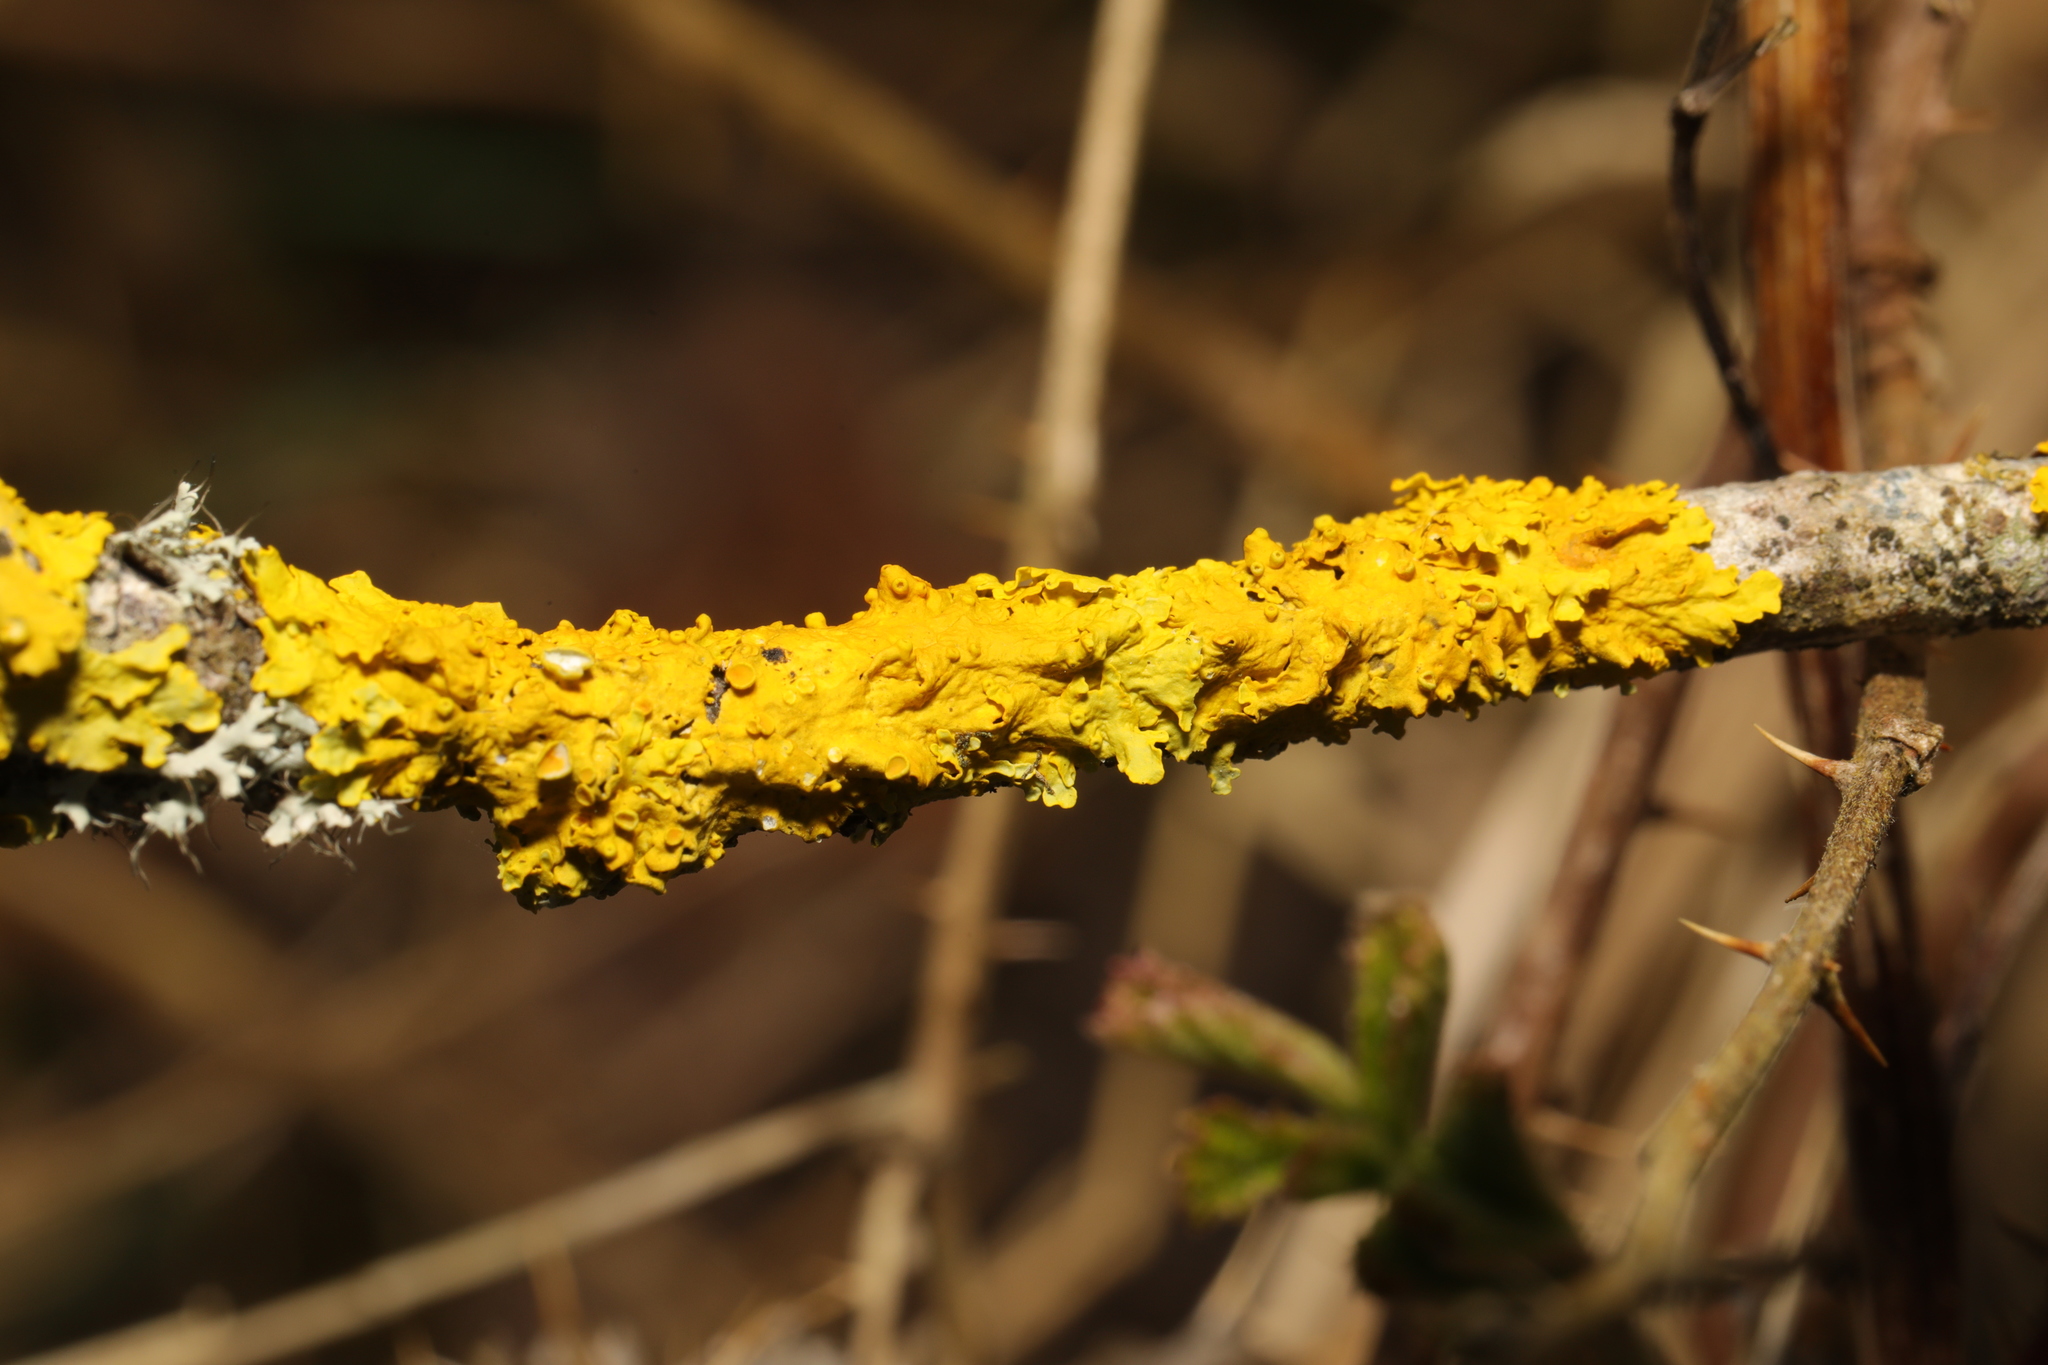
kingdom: Fungi
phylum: Ascomycota
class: Lecanoromycetes
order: Teloschistales
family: Teloschistaceae
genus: Xanthoria
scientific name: Xanthoria parietina
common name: Common orange lichen
